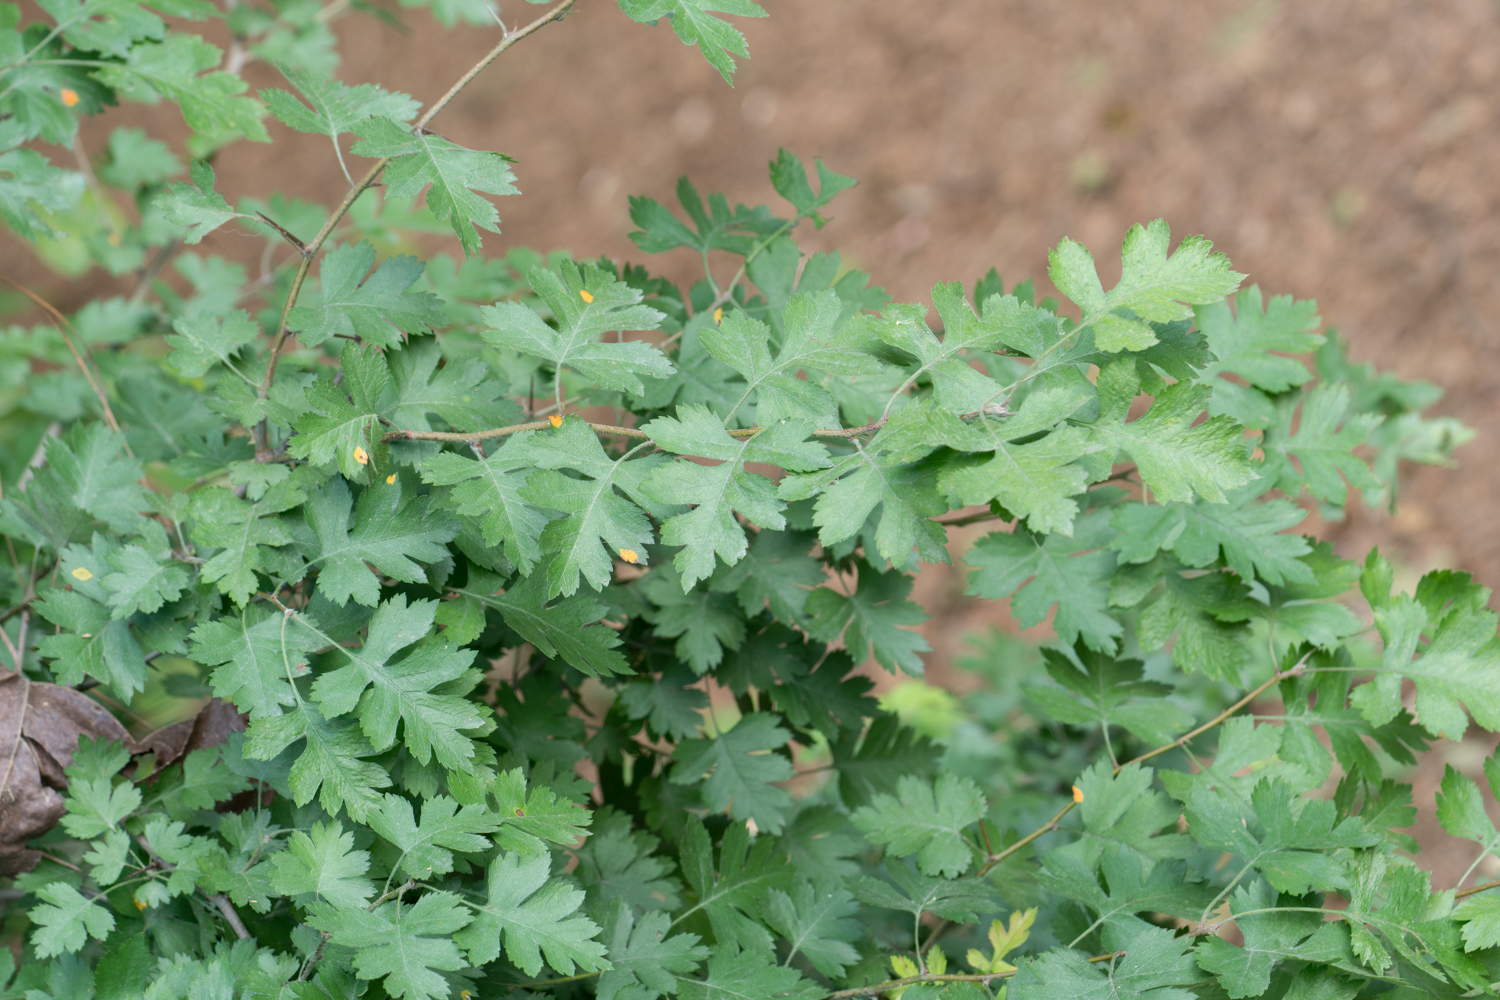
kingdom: Plantae
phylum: Tracheophyta
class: Magnoliopsida
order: Rosales
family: Rosaceae
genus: Crataegus
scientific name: Crataegus marshallii
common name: Parsley-hawthorn
